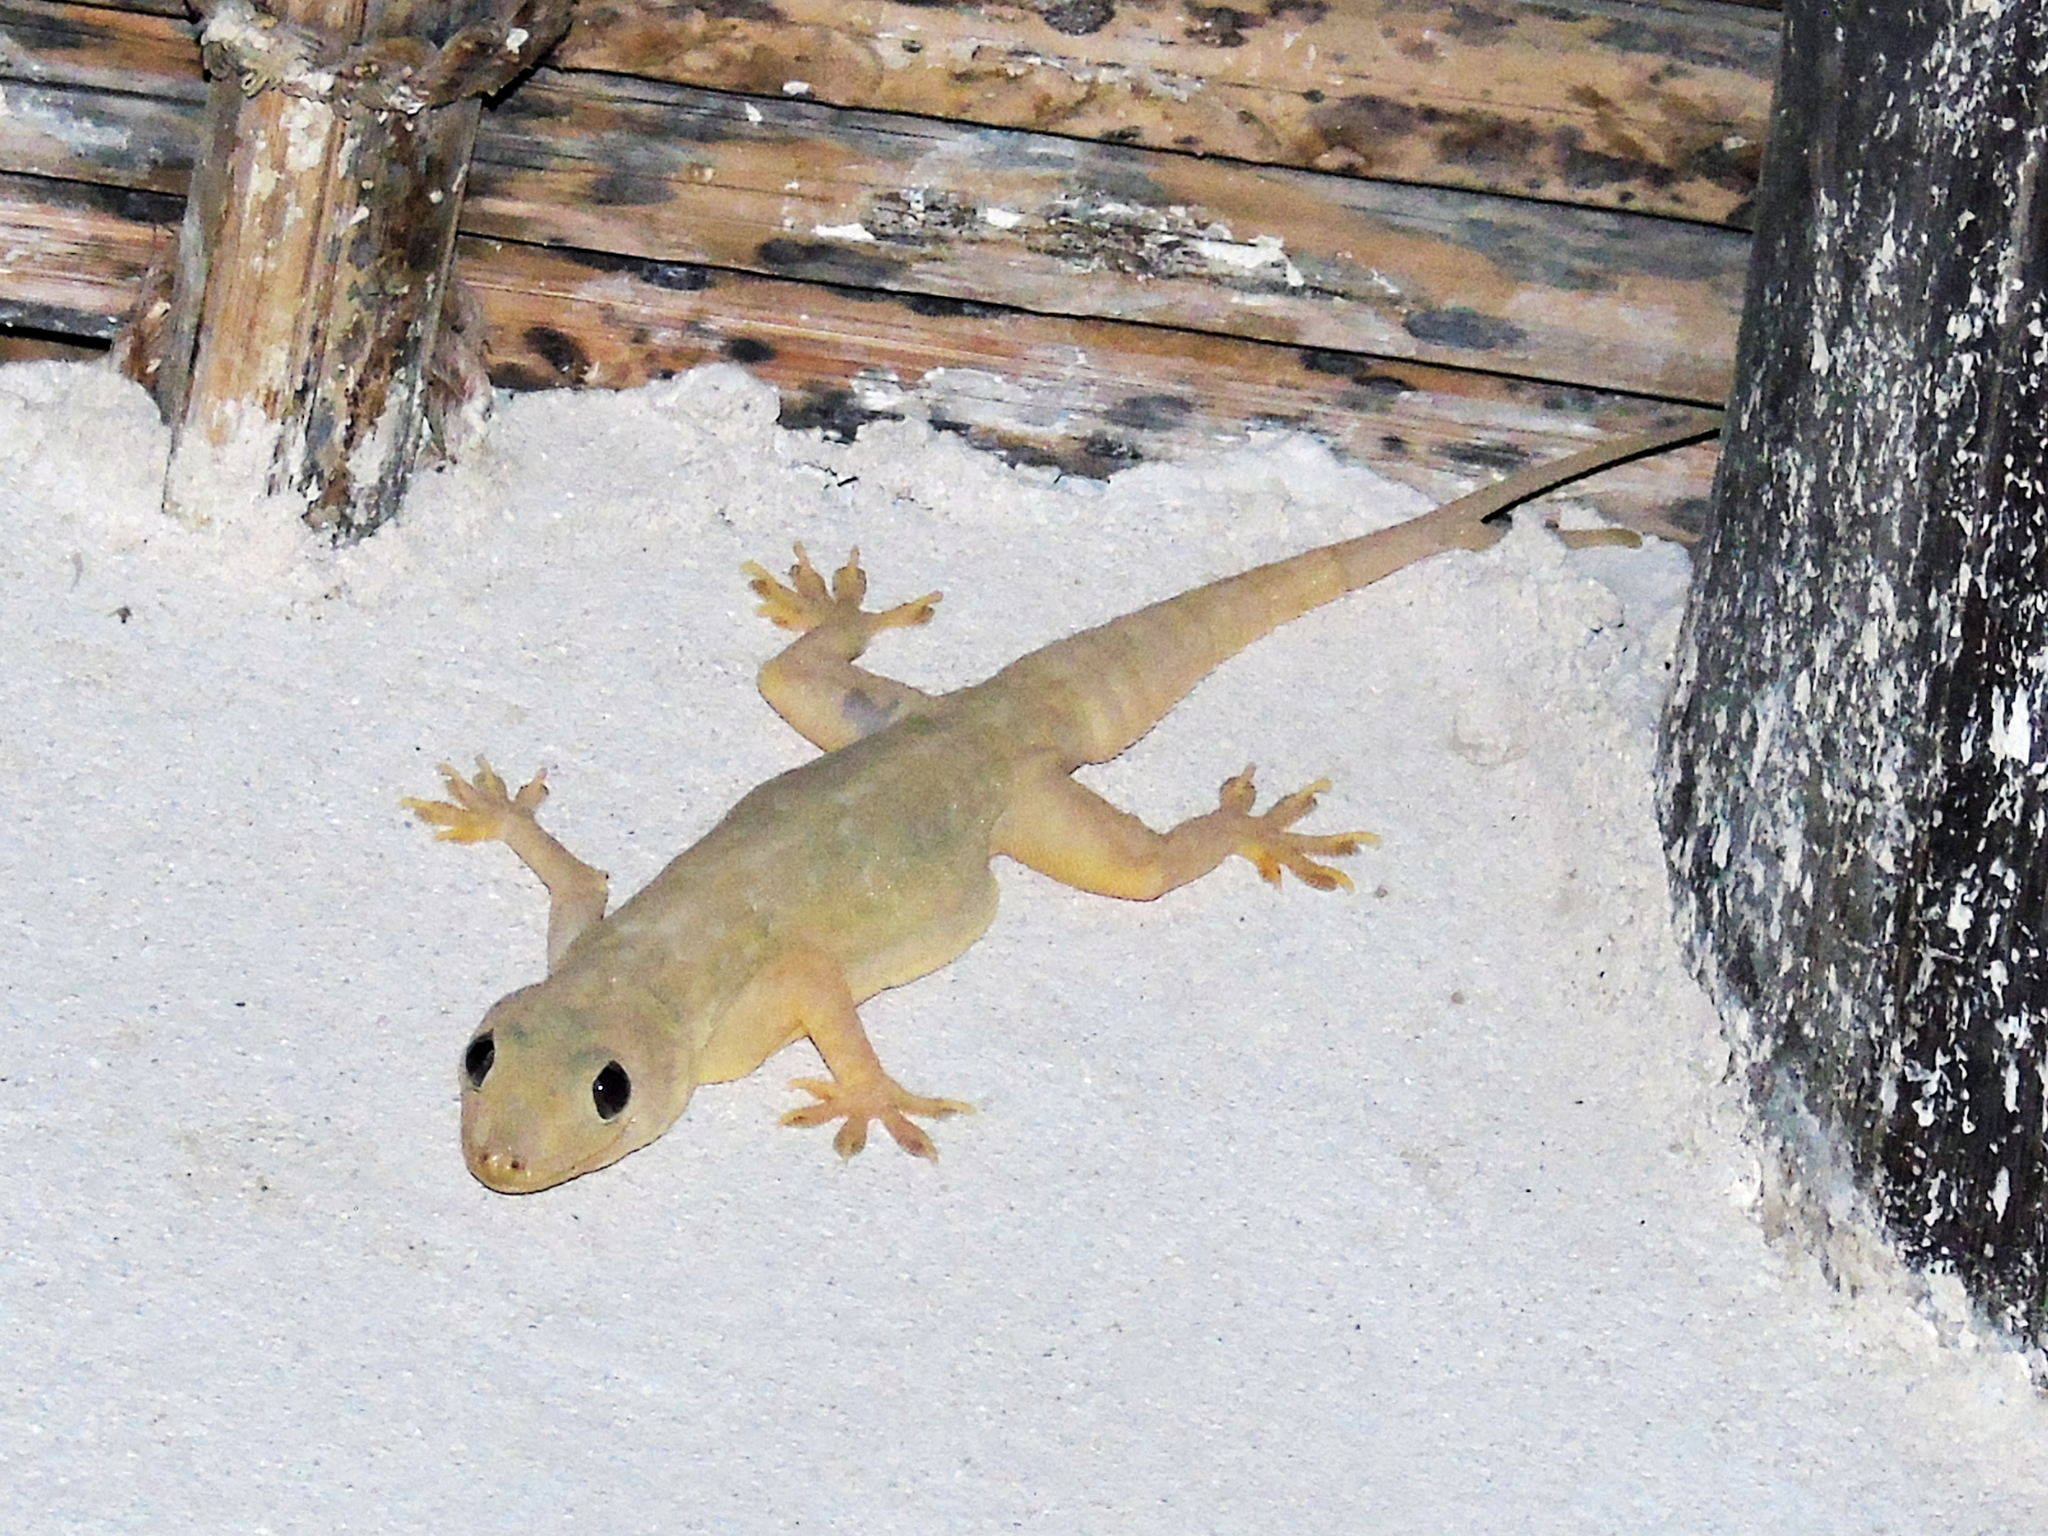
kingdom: Animalia
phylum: Chordata
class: Squamata
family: Gekkonidae
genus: Hemidactylus
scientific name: Hemidactylus flaviviridis
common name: Northern house gecko
